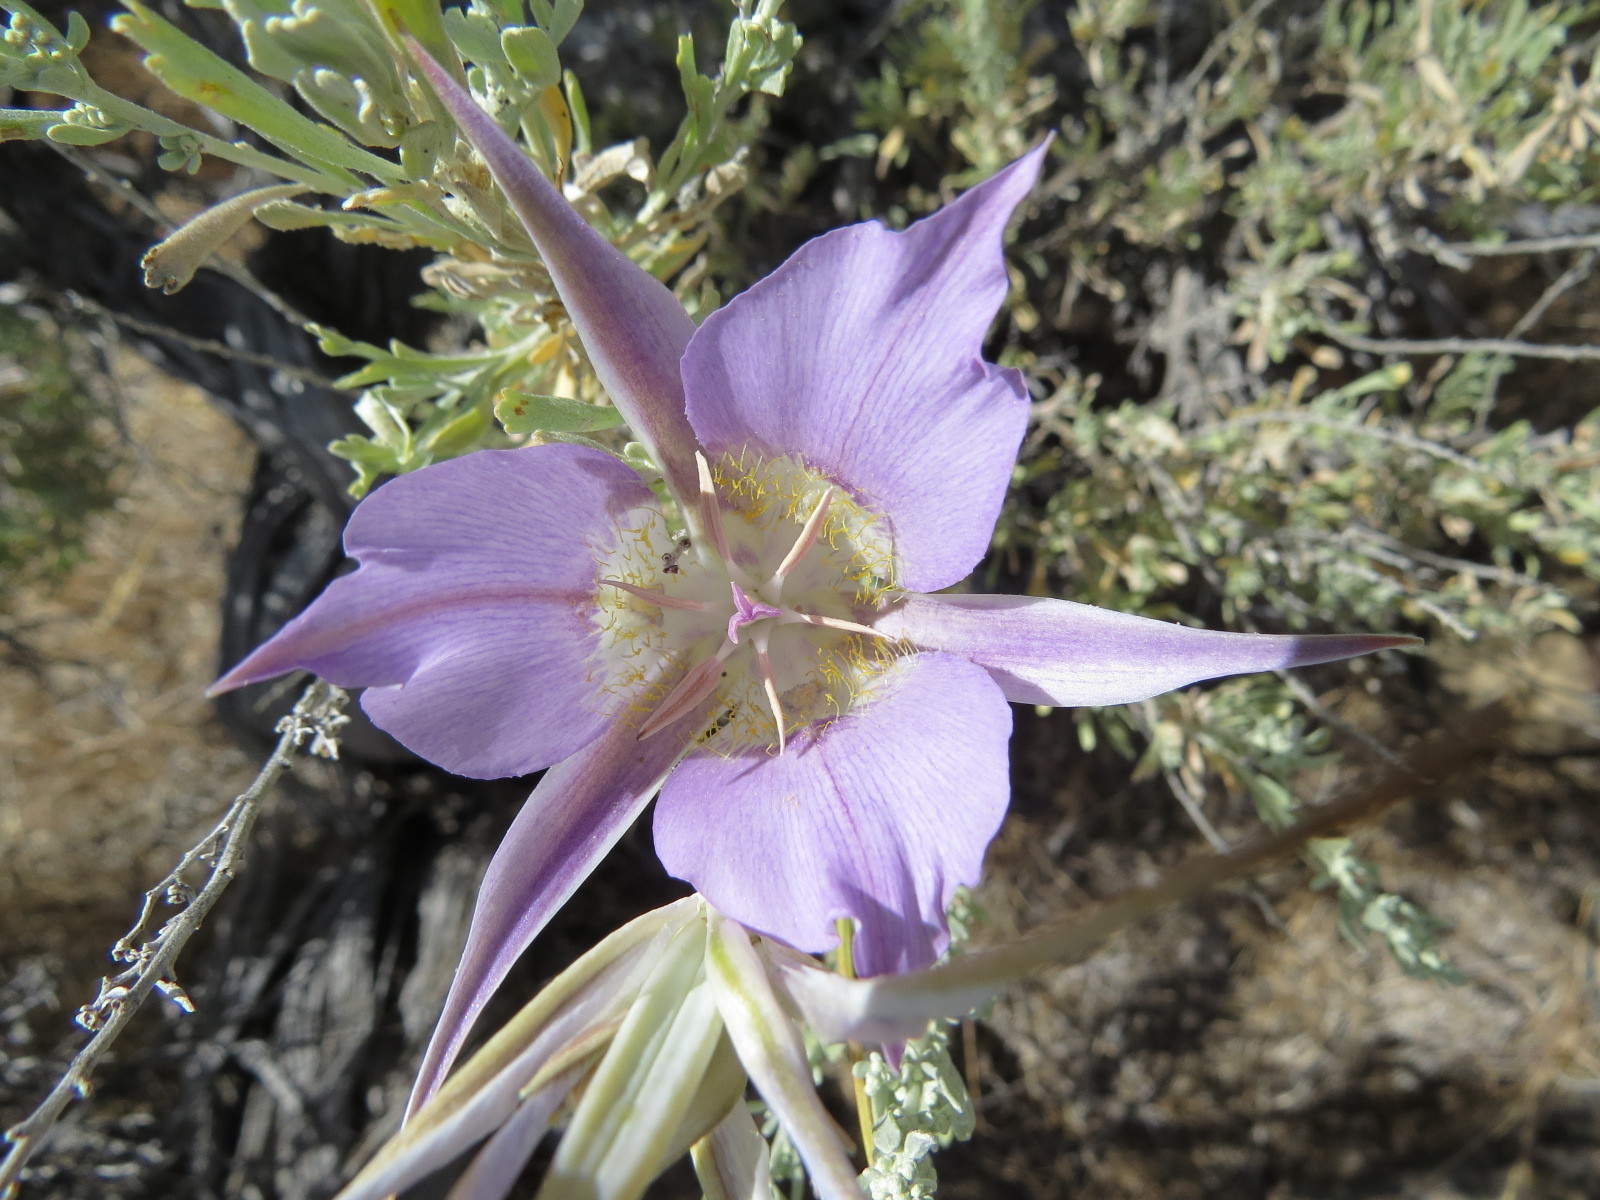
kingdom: Plantae
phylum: Tracheophyta
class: Liliopsida
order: Liliales
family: Liliaceae
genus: Calochortus
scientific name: Calochortus macrocarpus
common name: Green-band mariposa lily
